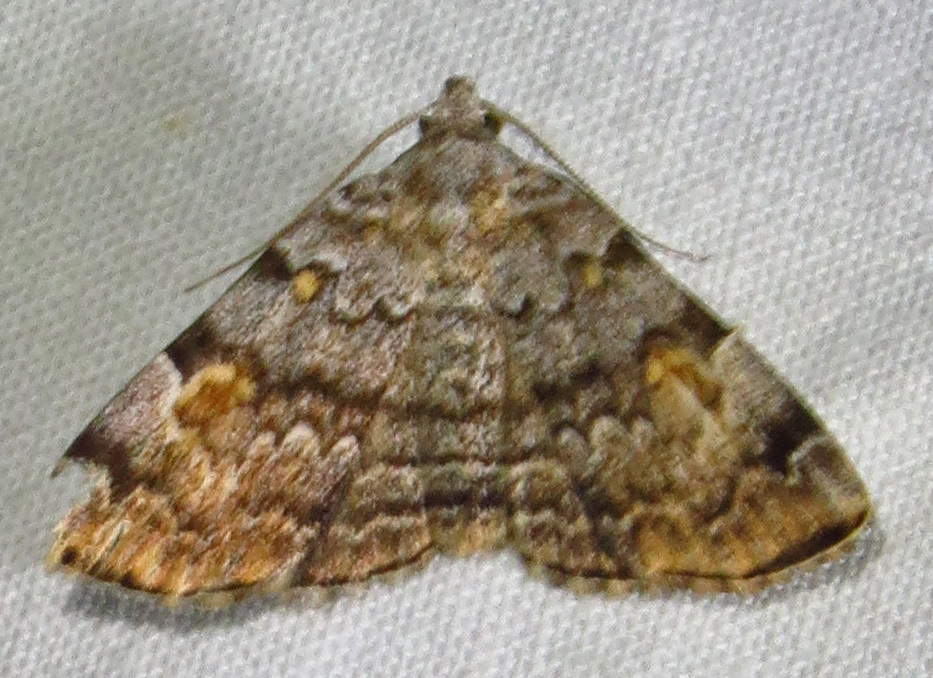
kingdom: Animalia
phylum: Arthropoda
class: Insecta
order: Lepidoptera
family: Erebidae
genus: Idia
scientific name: Idia americalis
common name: American idia moth
